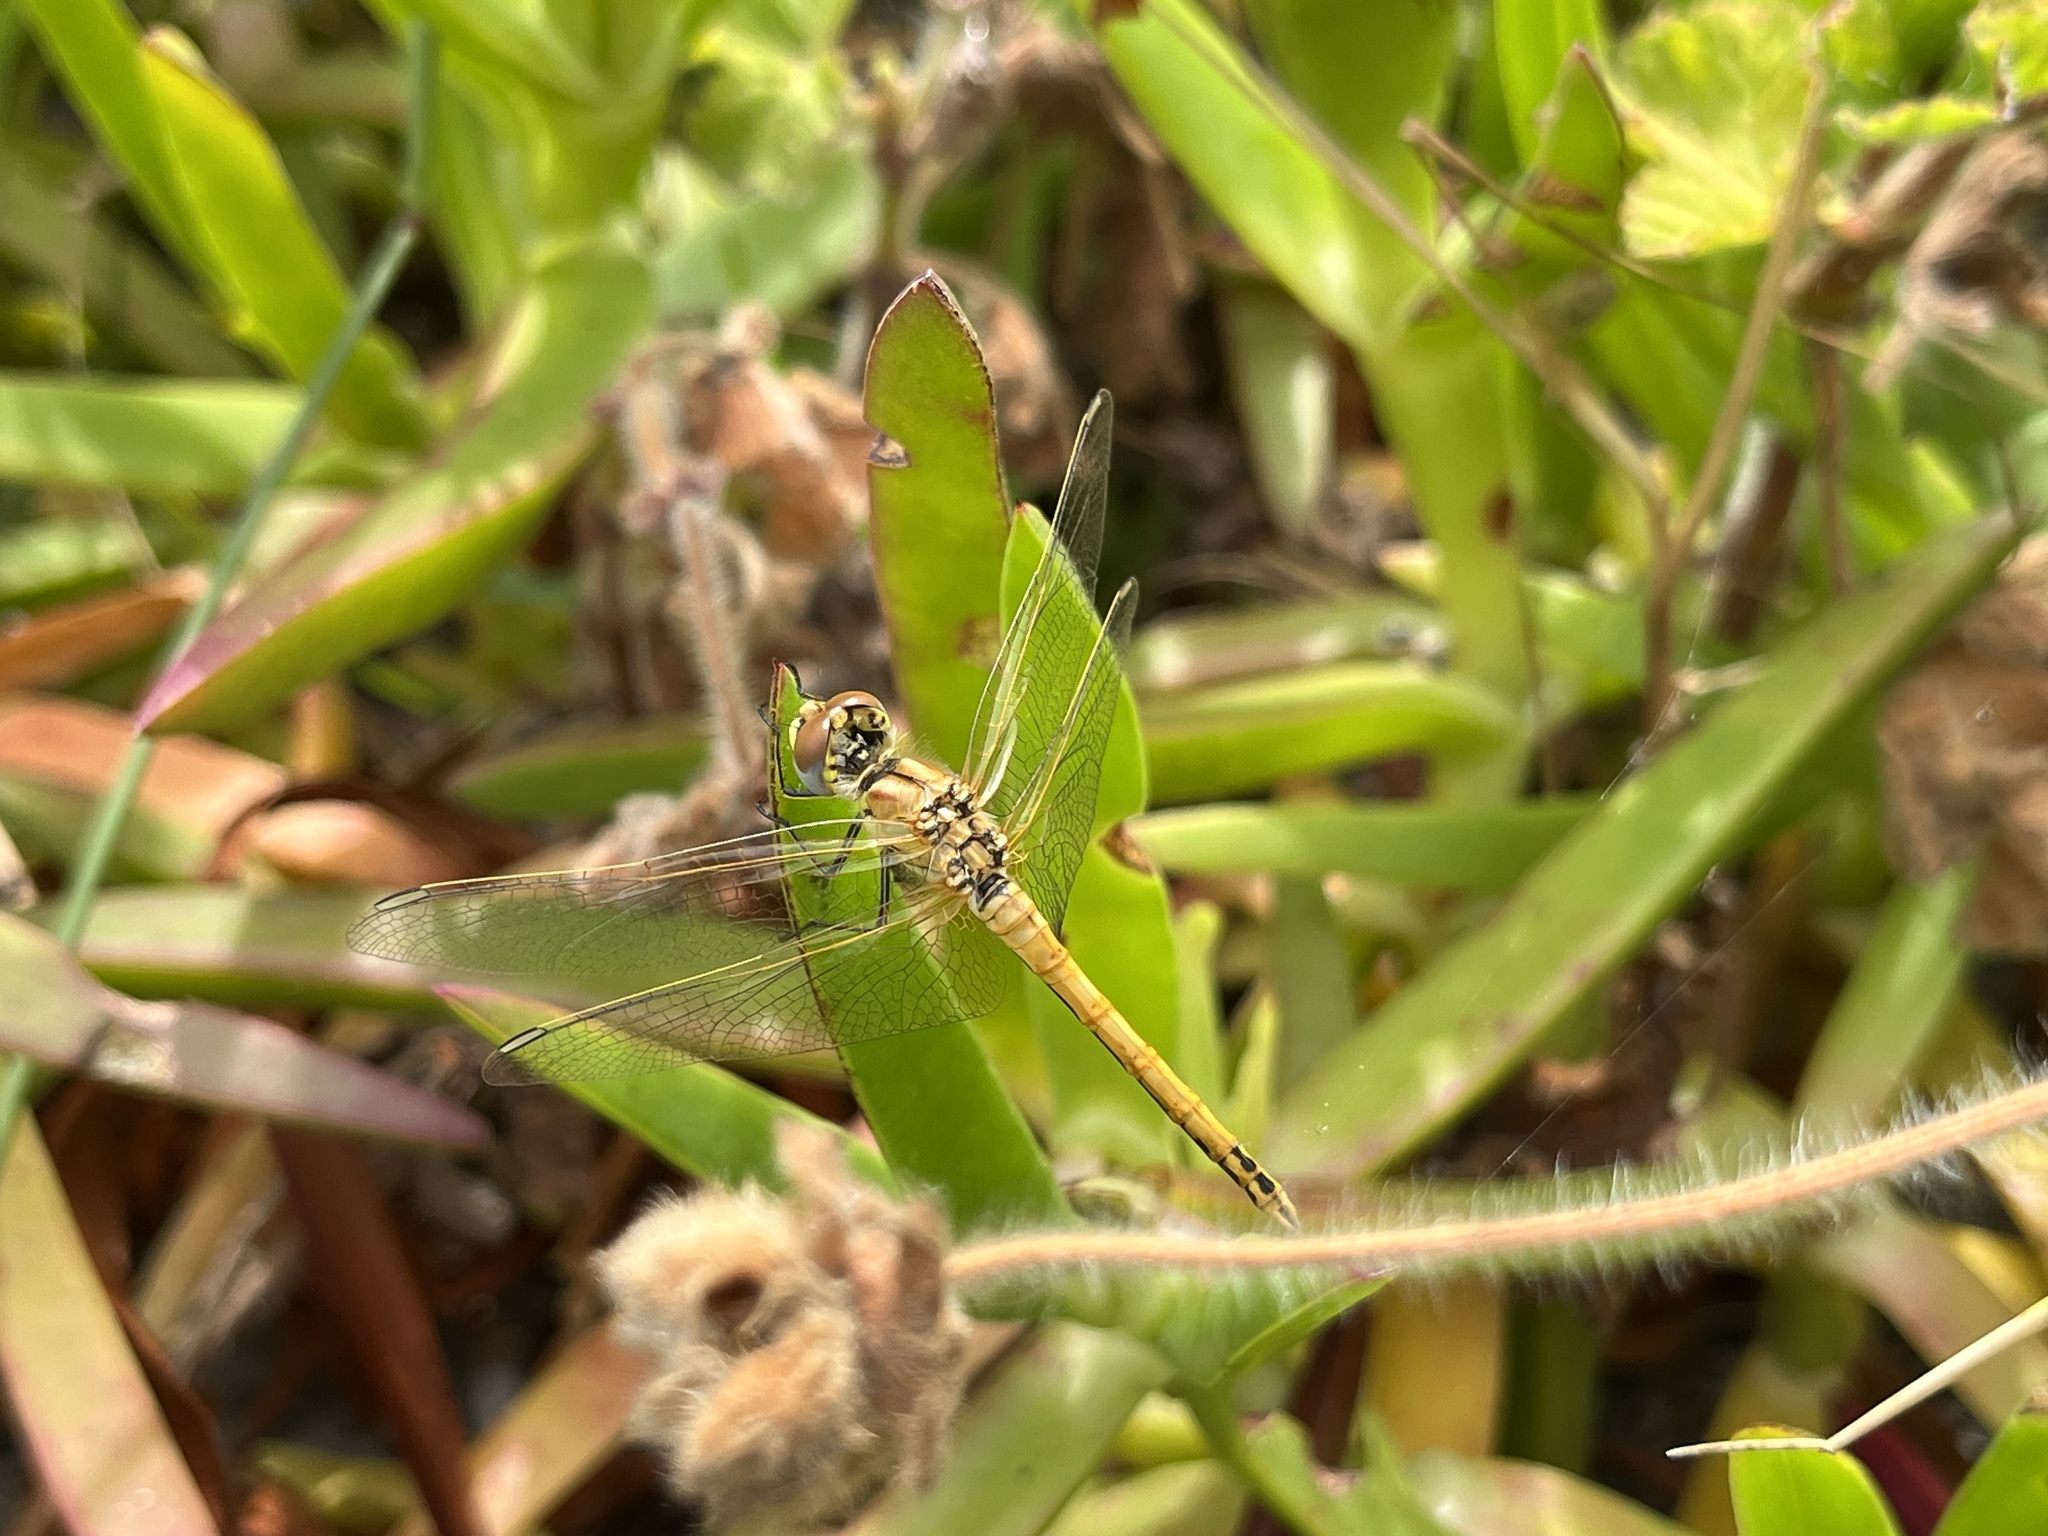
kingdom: Animalia
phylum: Arthropoda
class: Insecta
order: Odonata
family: Libellulidae
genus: Sympetrum
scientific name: Sympetrum fonscolombii
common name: Red-veined darter
